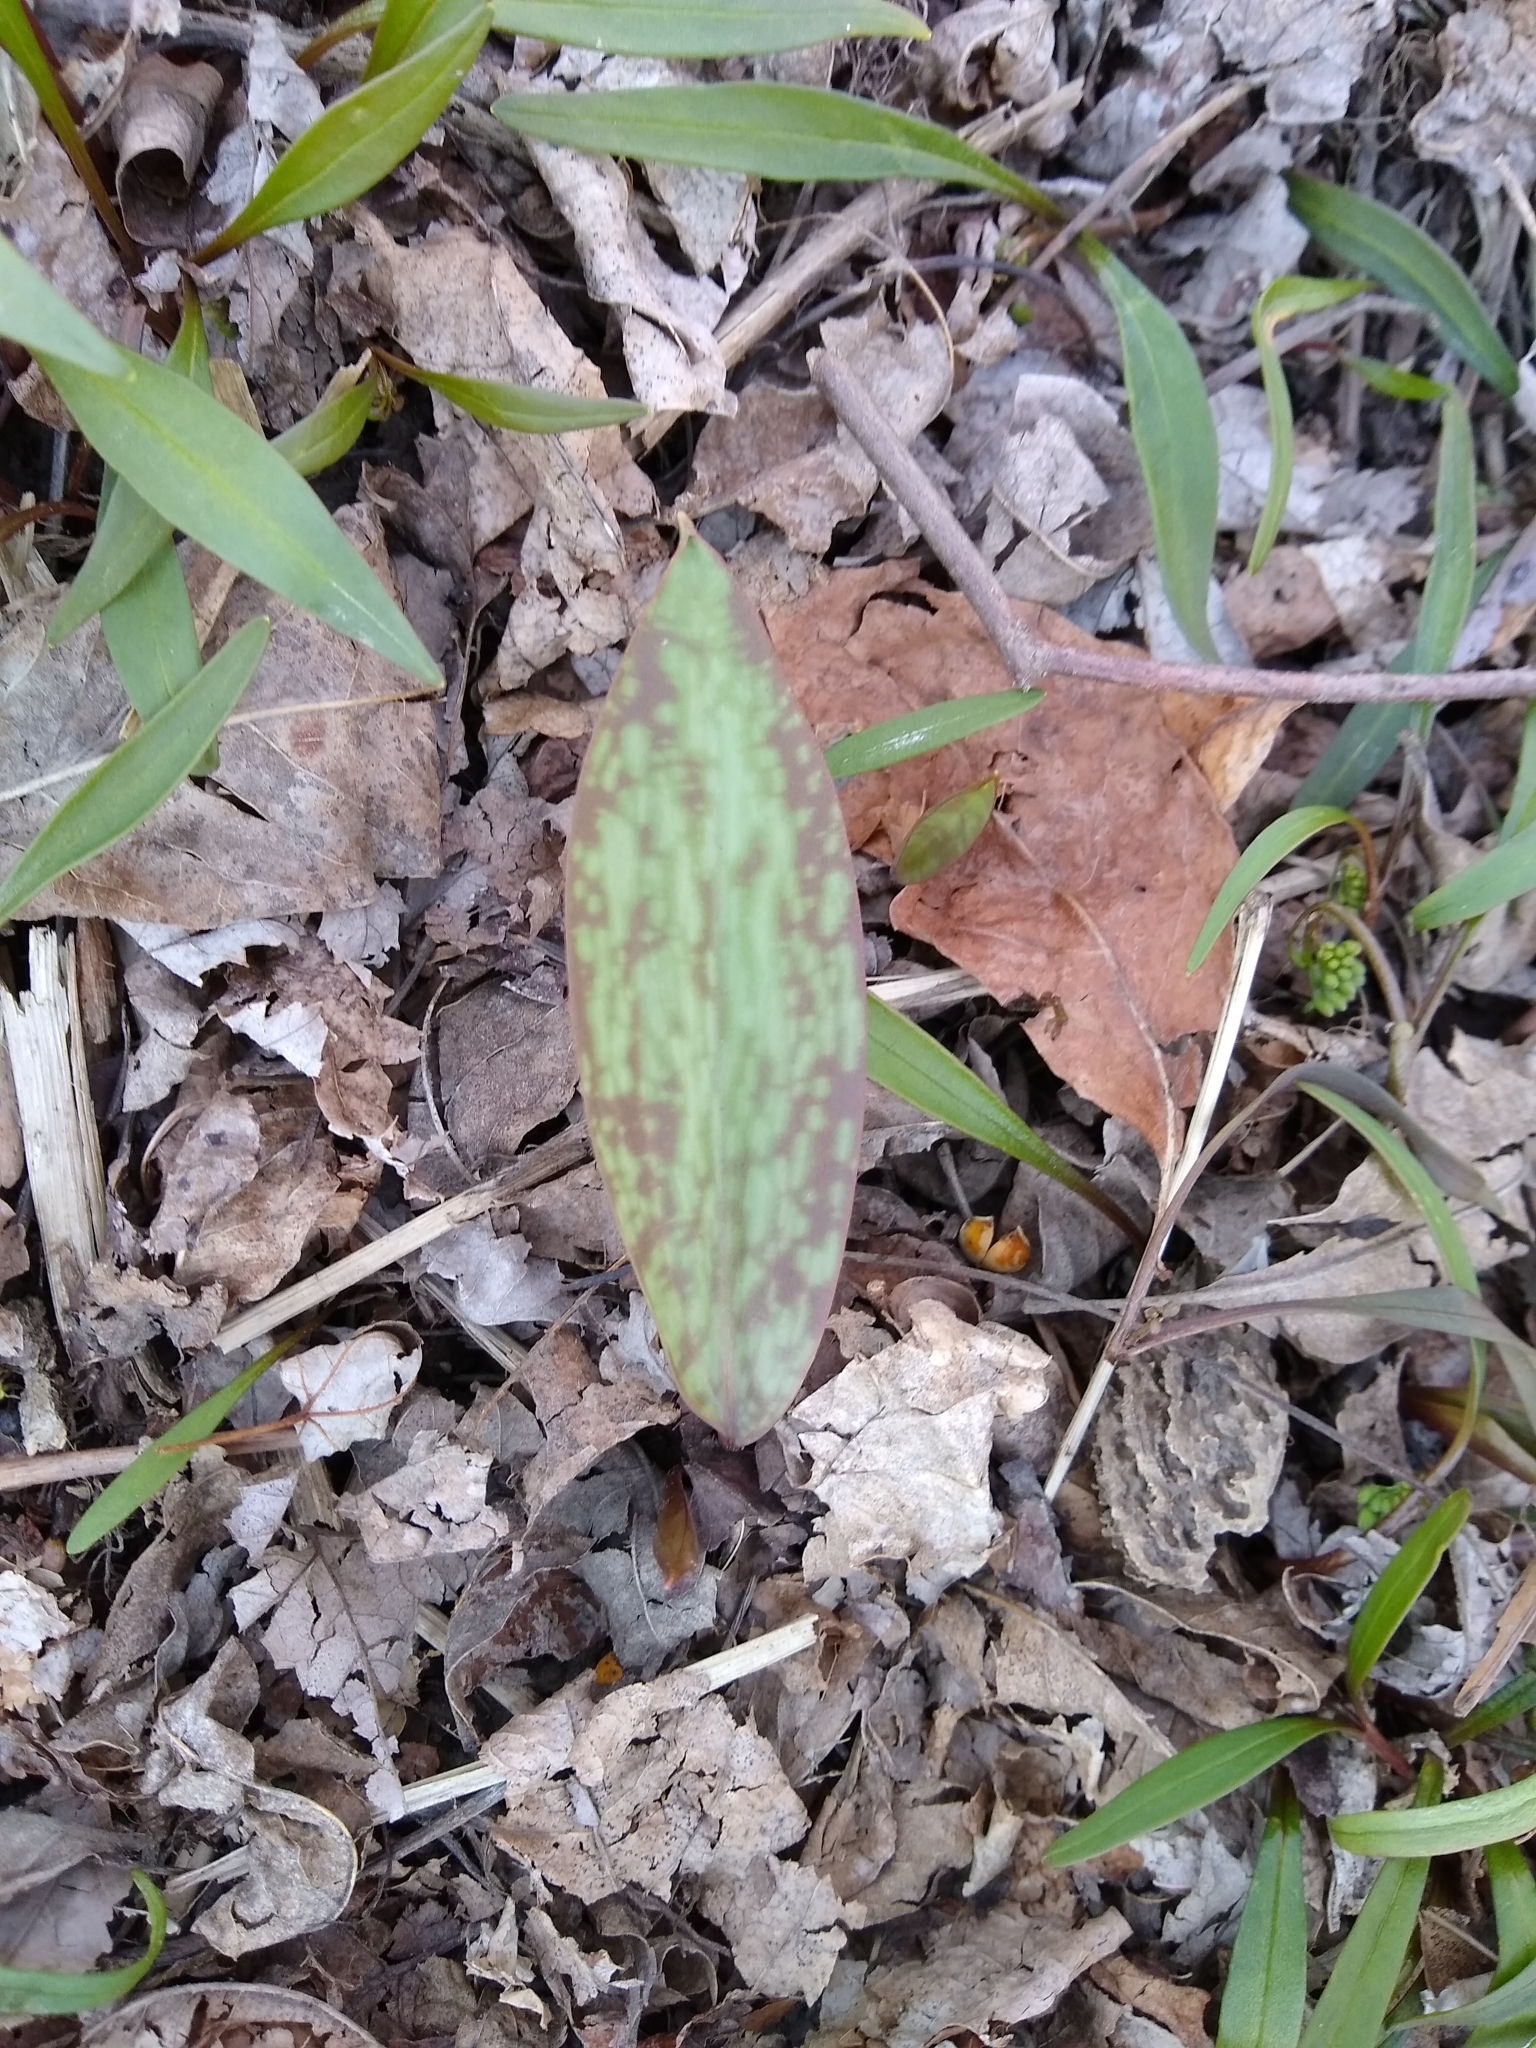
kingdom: Plantae
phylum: Tracheophyta
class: Liliopsida
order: Liliales
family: Liliaceae
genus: Erythronium
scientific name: Erythronium americanum
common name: Yellow adder's-tongue
